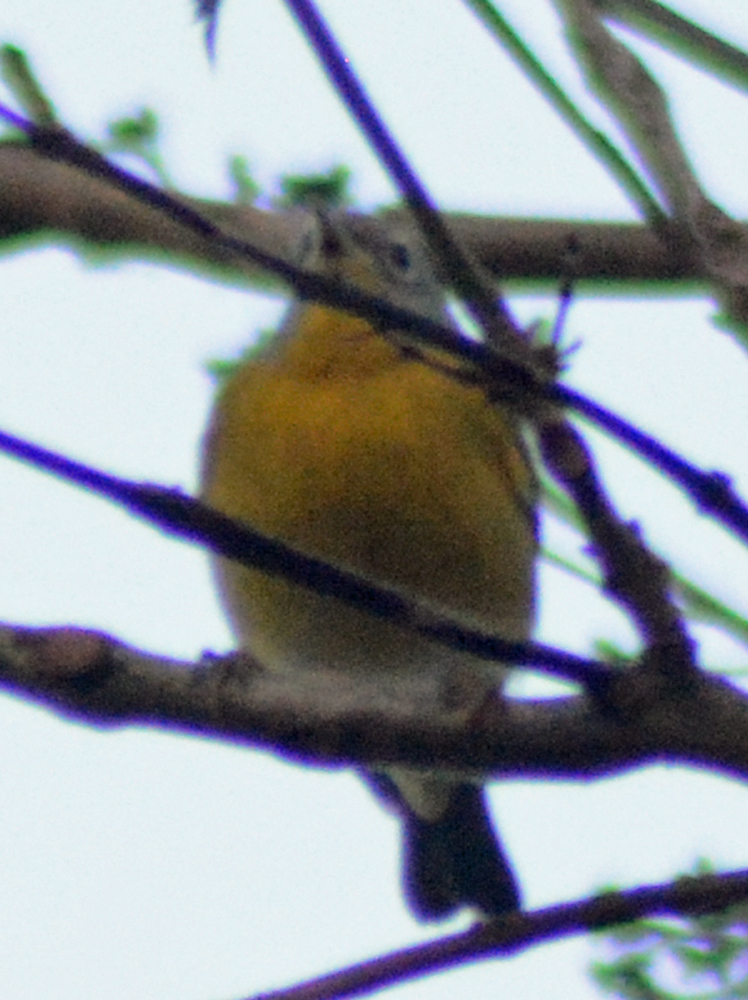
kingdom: Animalia
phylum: Chordata
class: Aves
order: Passeriformes
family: Parulidae
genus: Leiothlypis
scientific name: Leiothlypis ruficapilla
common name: Nashville warbler
